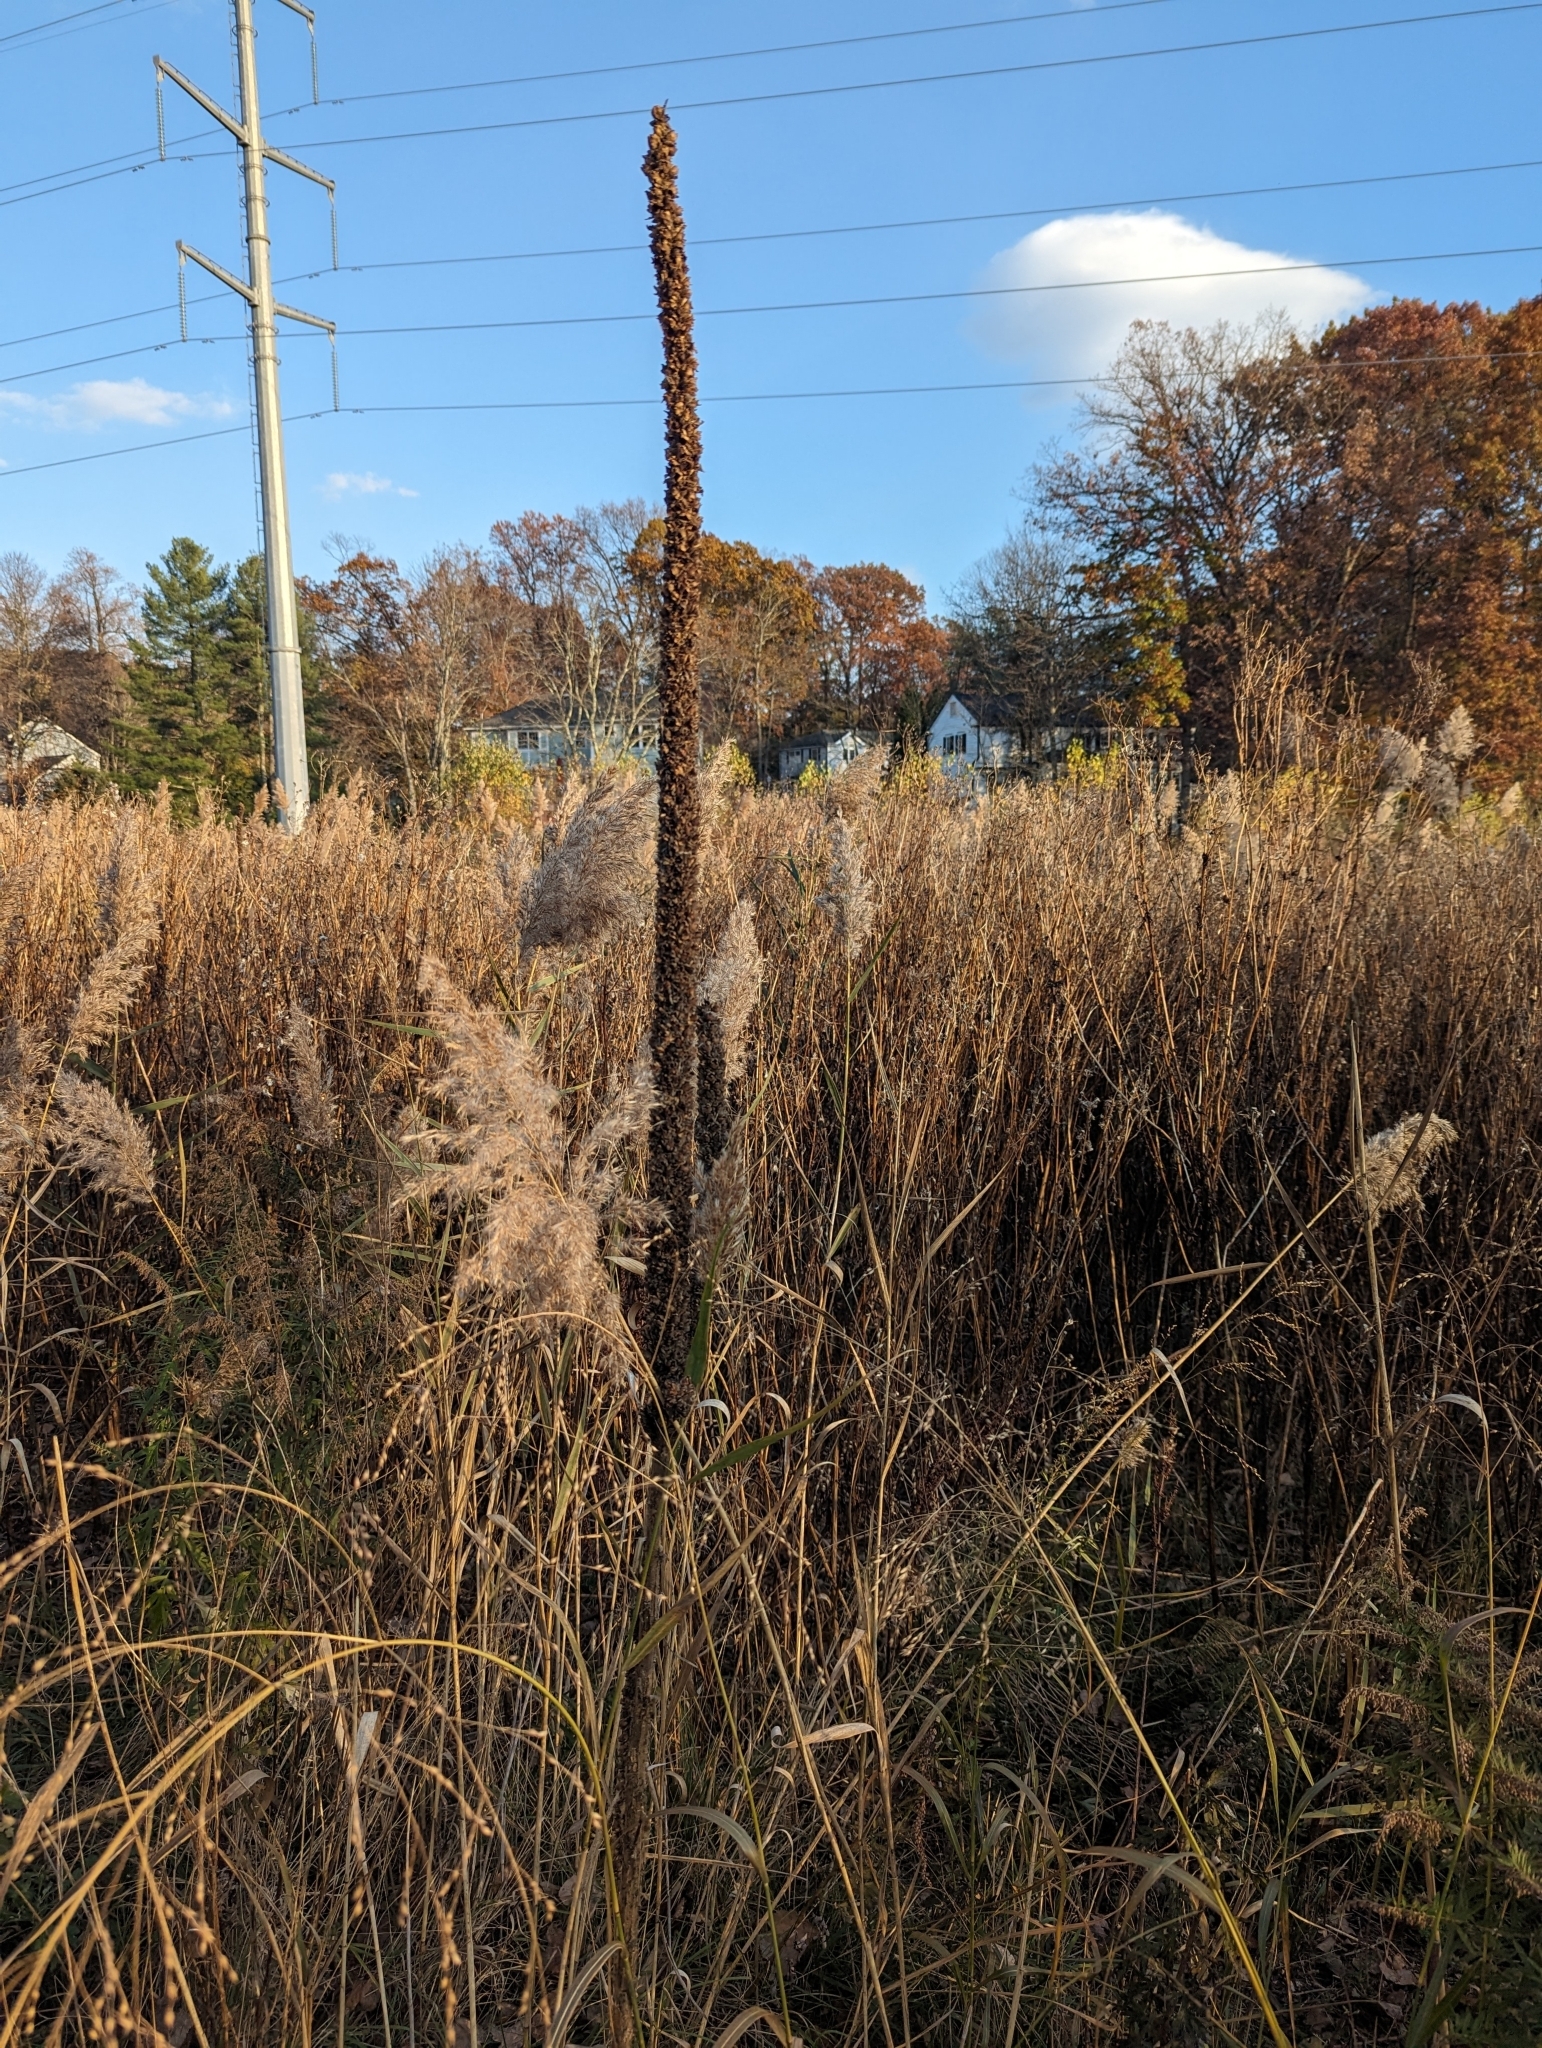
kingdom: Plantae
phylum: Tracheophyta
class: Magnoliopsida
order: Lamiales
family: Scrophulariaceae
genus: Verbascum
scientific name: Verbascum thapsus
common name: Common mullein
